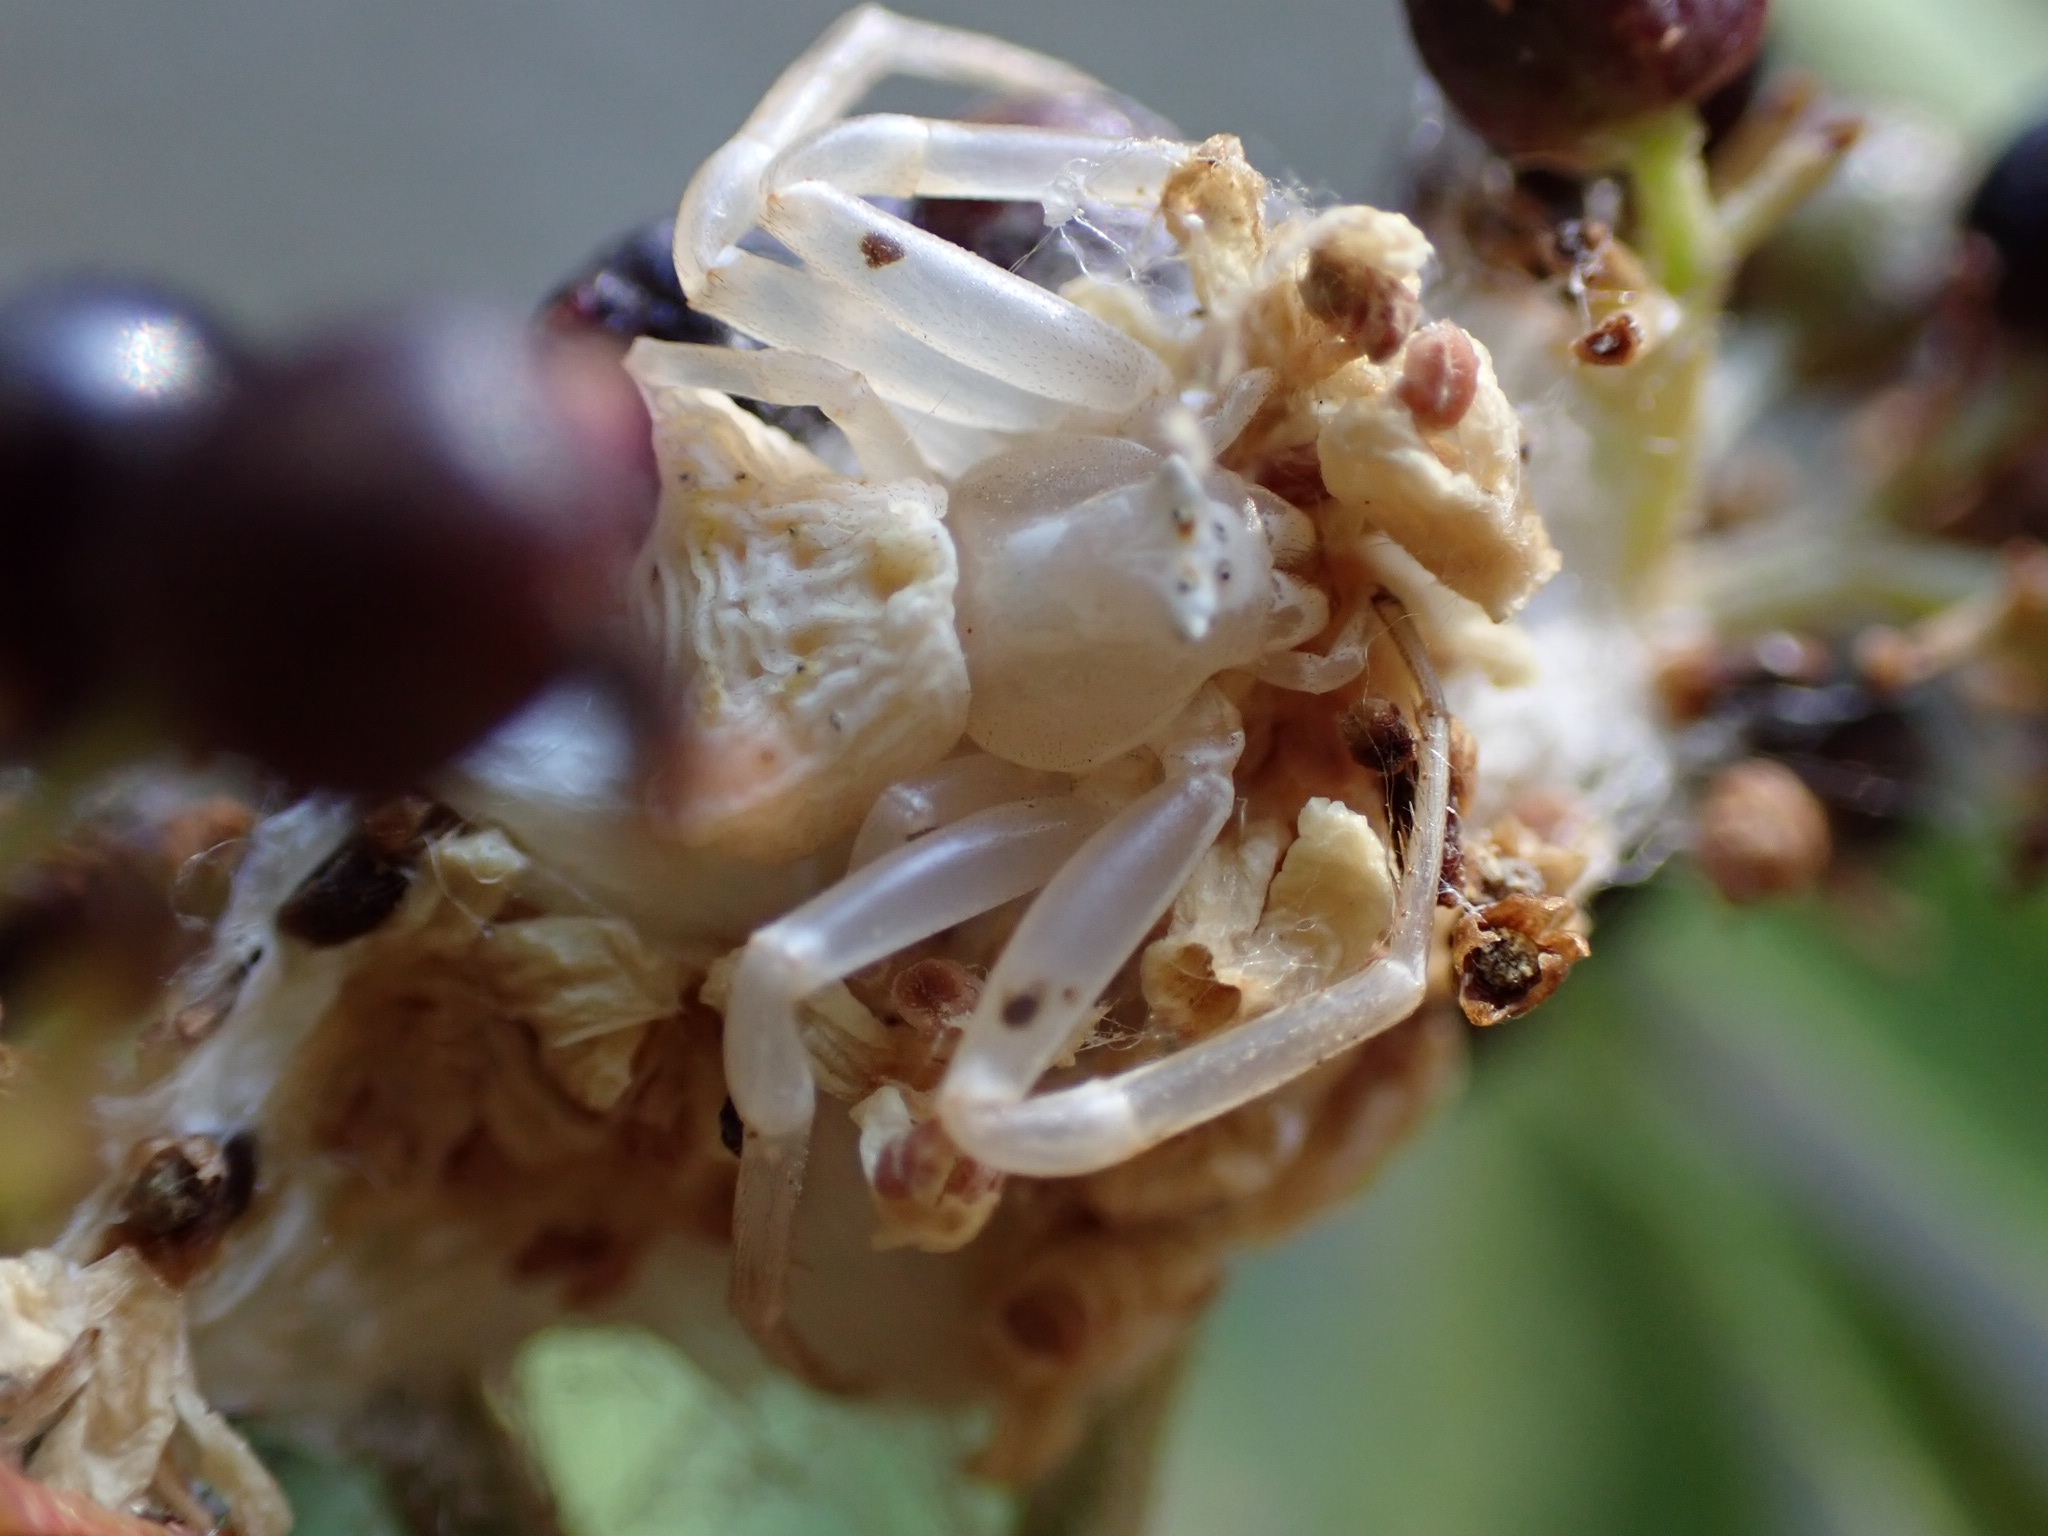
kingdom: Animalia
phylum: Arthropoda
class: Arachnida
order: Araneae
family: Thomisidae
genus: Thomisus
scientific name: Thomisus onustus
